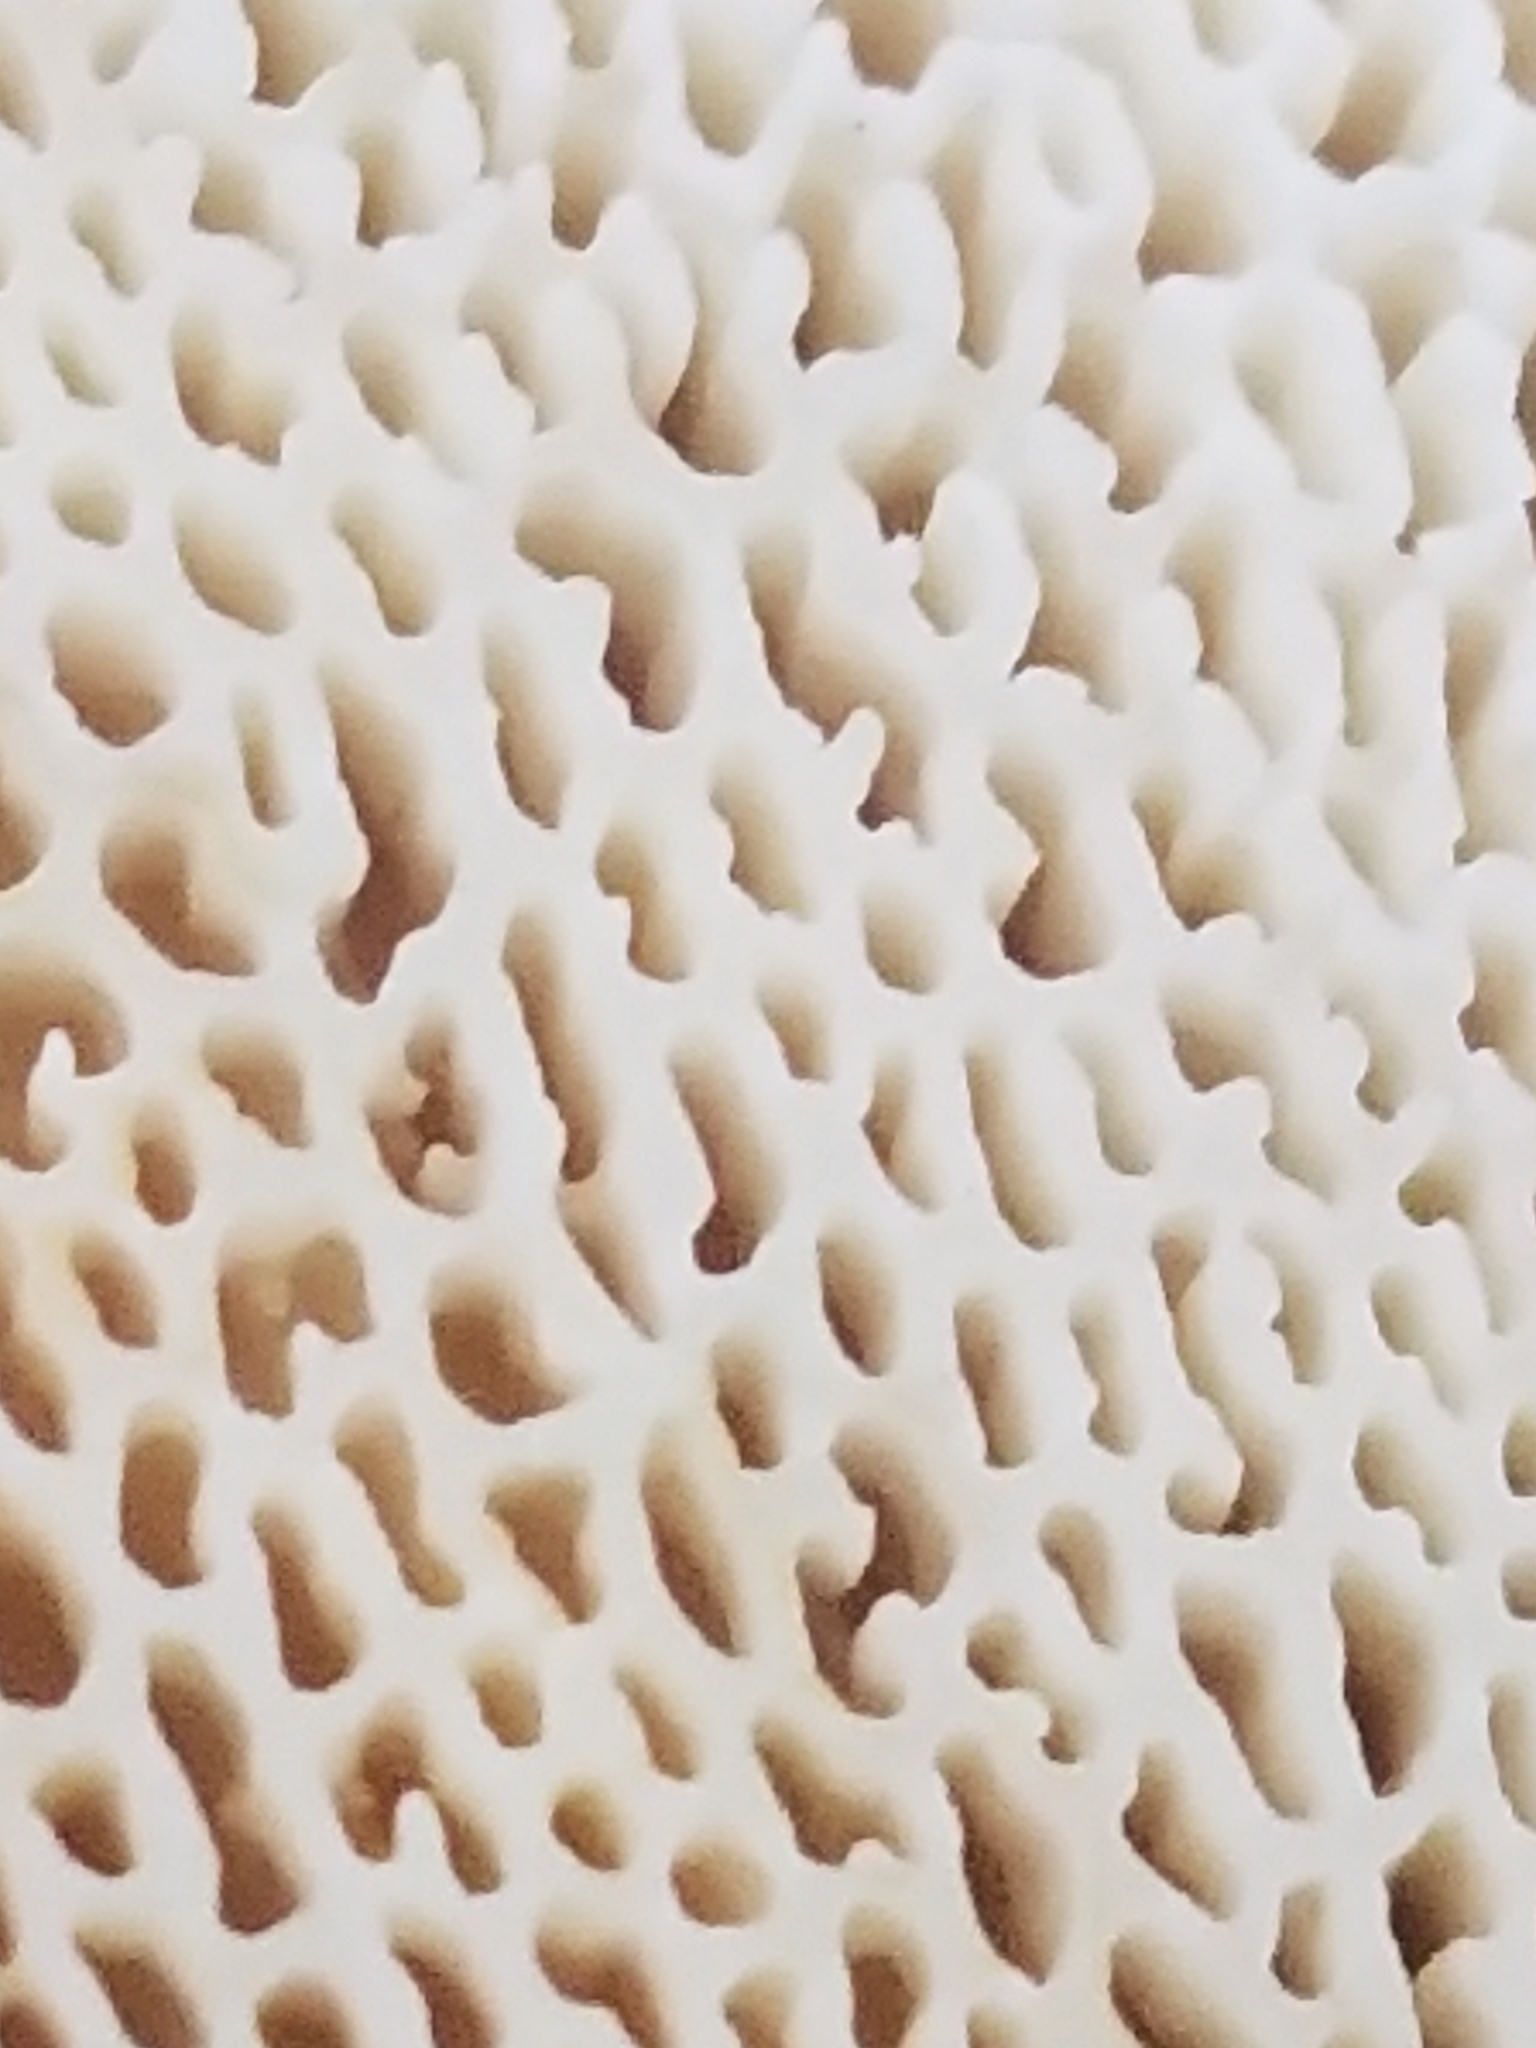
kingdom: Fungi
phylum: Basidiomycota
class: Agaricomycetes
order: Russulales
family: Bondarzewiaceae
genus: Bondarzewia
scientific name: Bondarzewia berkeleyi
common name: Berkeley's polypore
